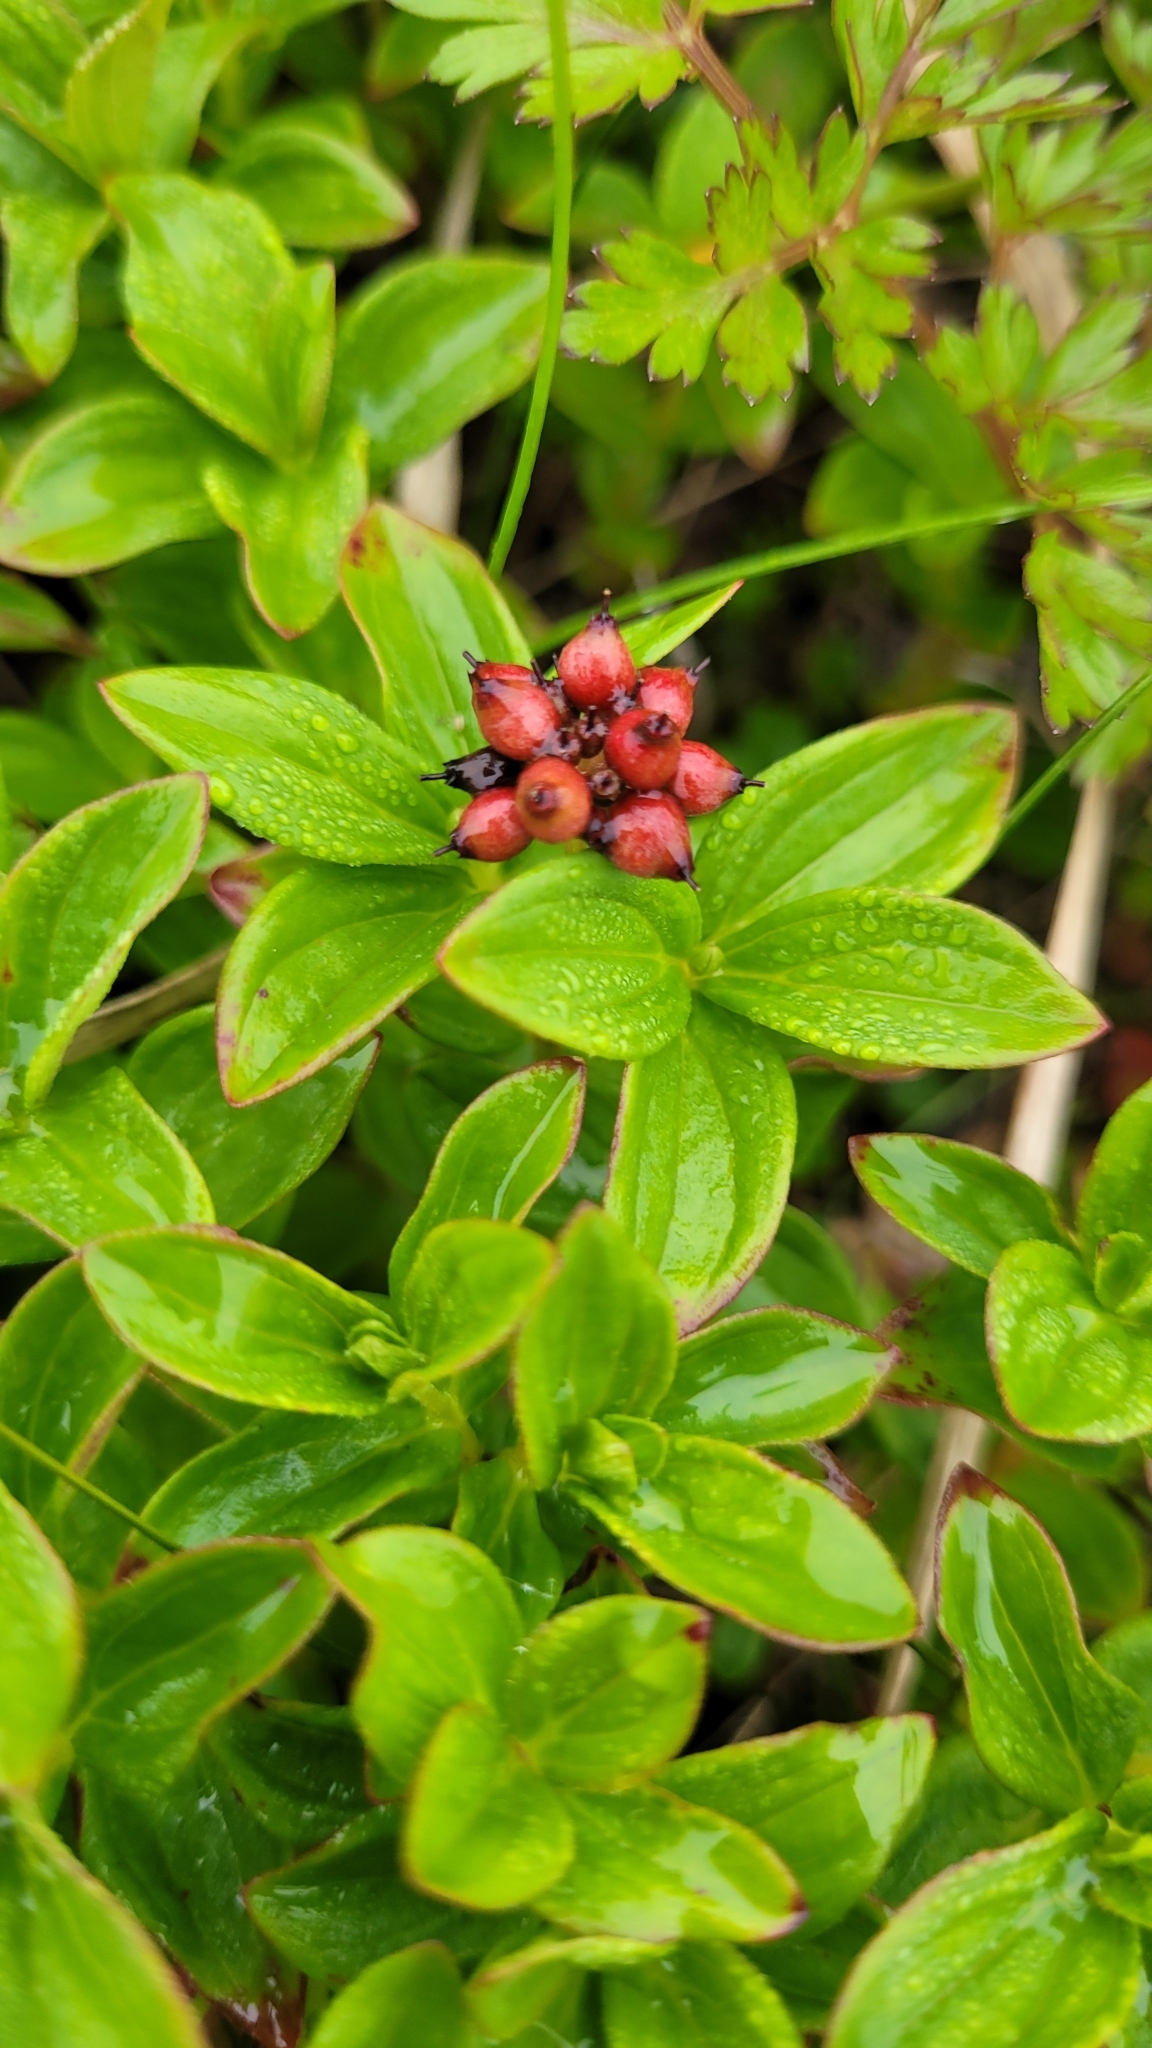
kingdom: Plantae
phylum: Tracheophyta
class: Magnoliopsida
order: Cornales
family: Cornaceae
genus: Cornus
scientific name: Cornus suecica
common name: Dwarf cornel
